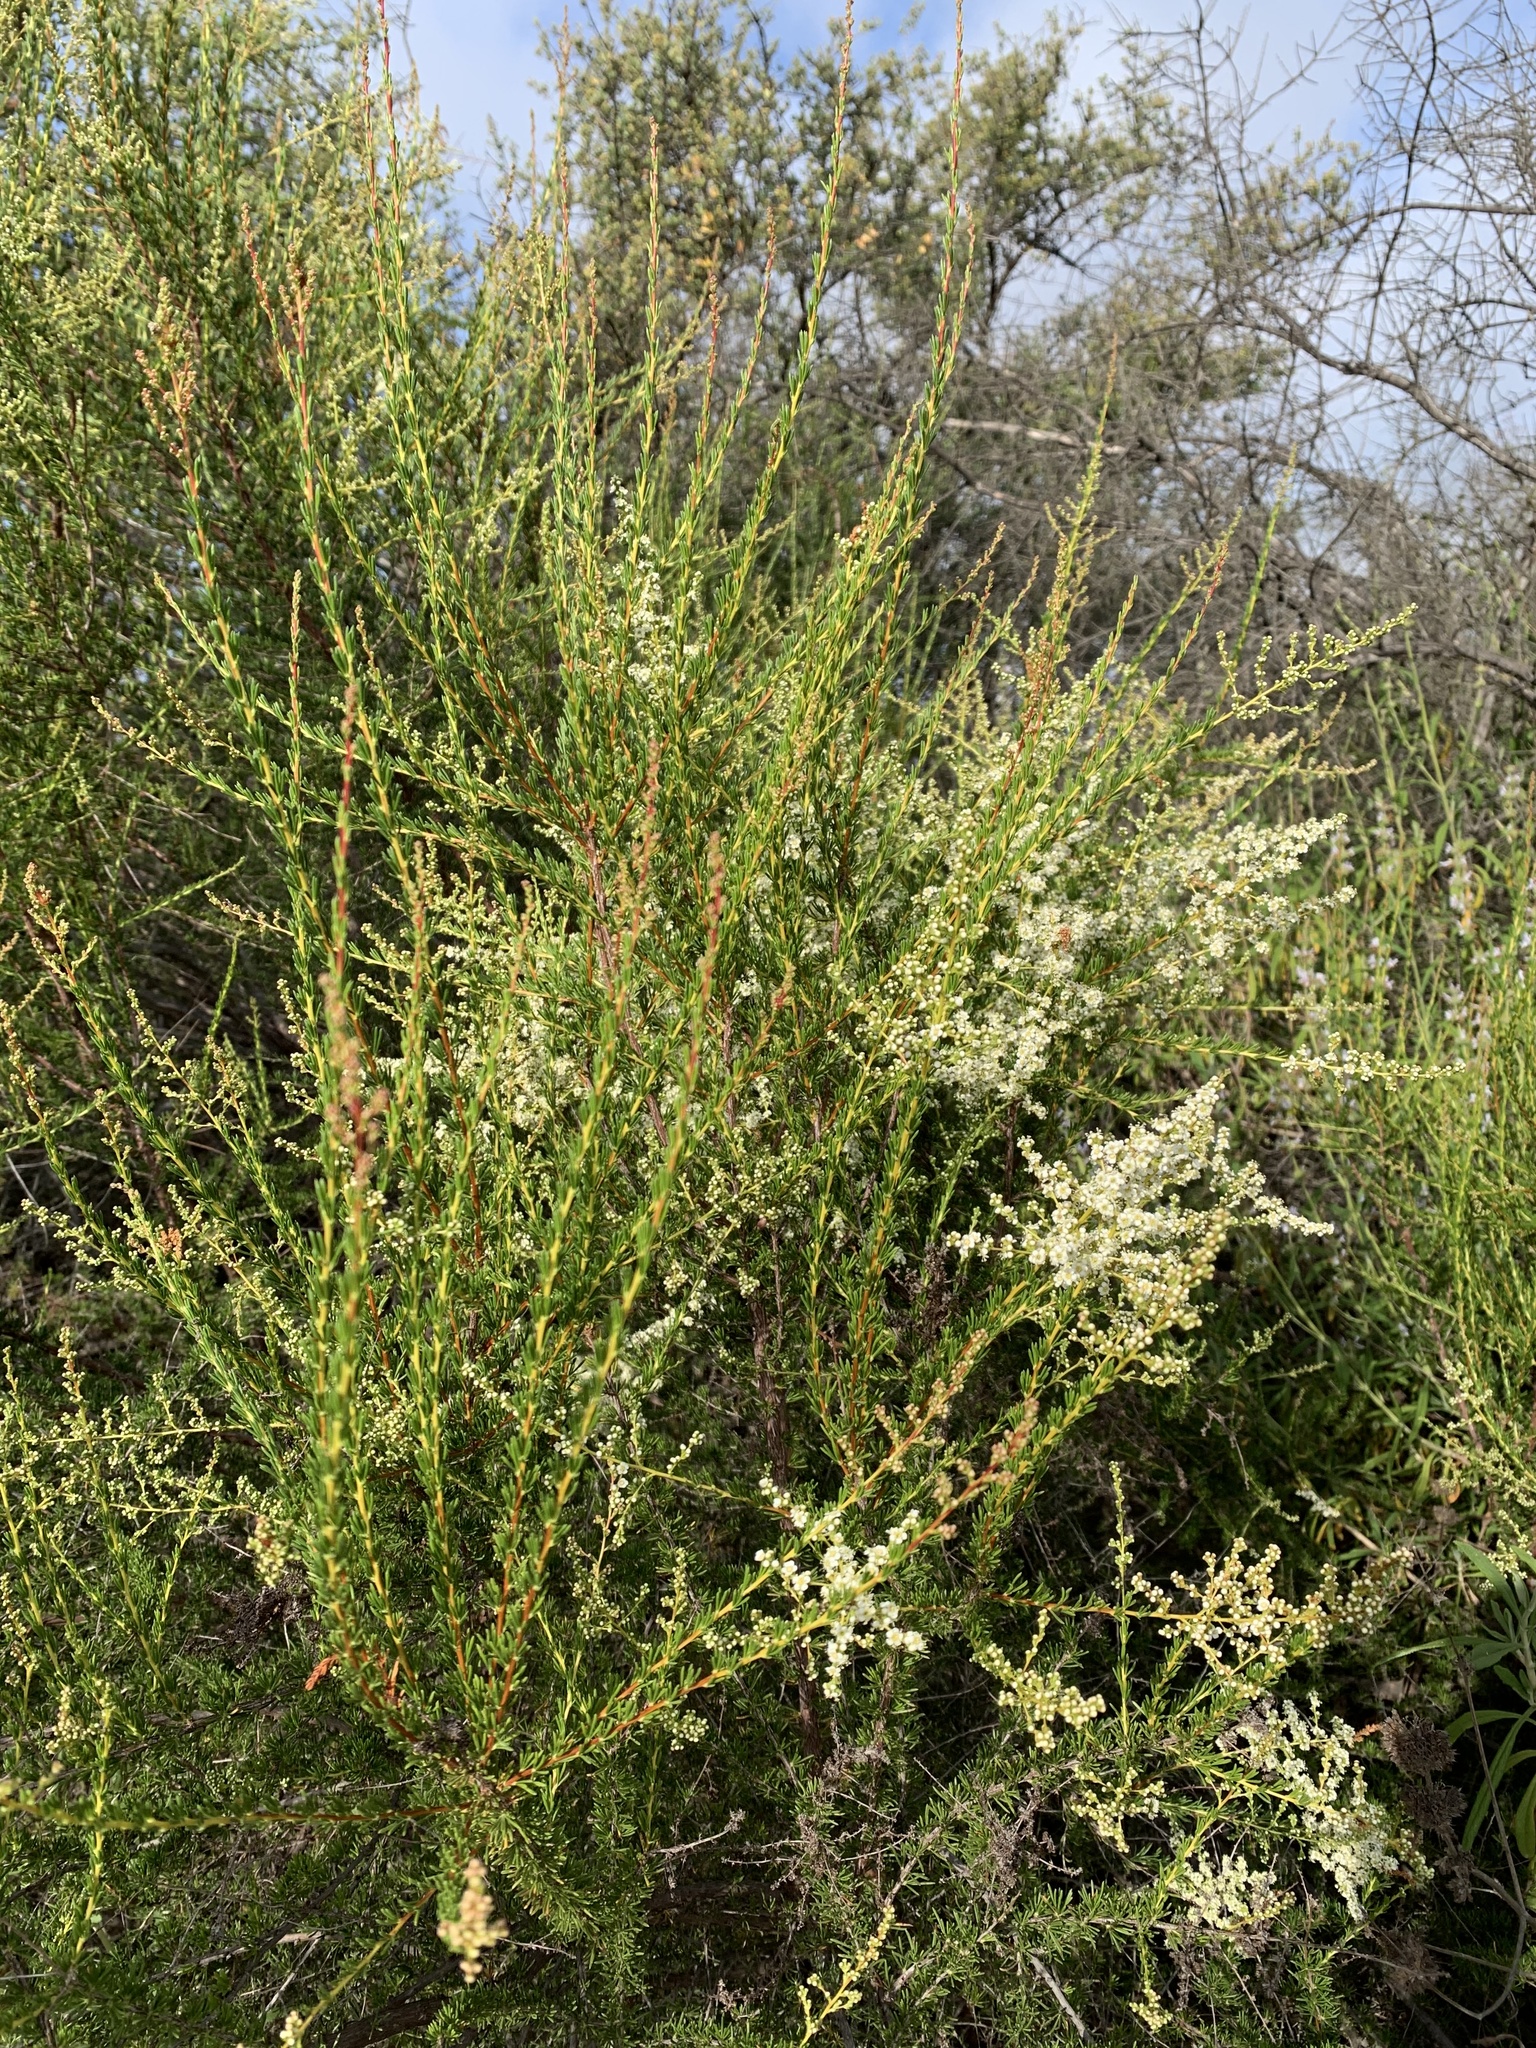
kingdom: Plantae
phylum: Tracheophyta
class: Magnoliopsida
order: Rosales
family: Rosaceae
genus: Adenostoma
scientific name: Adenostoma fasciculatum
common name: Chamise
